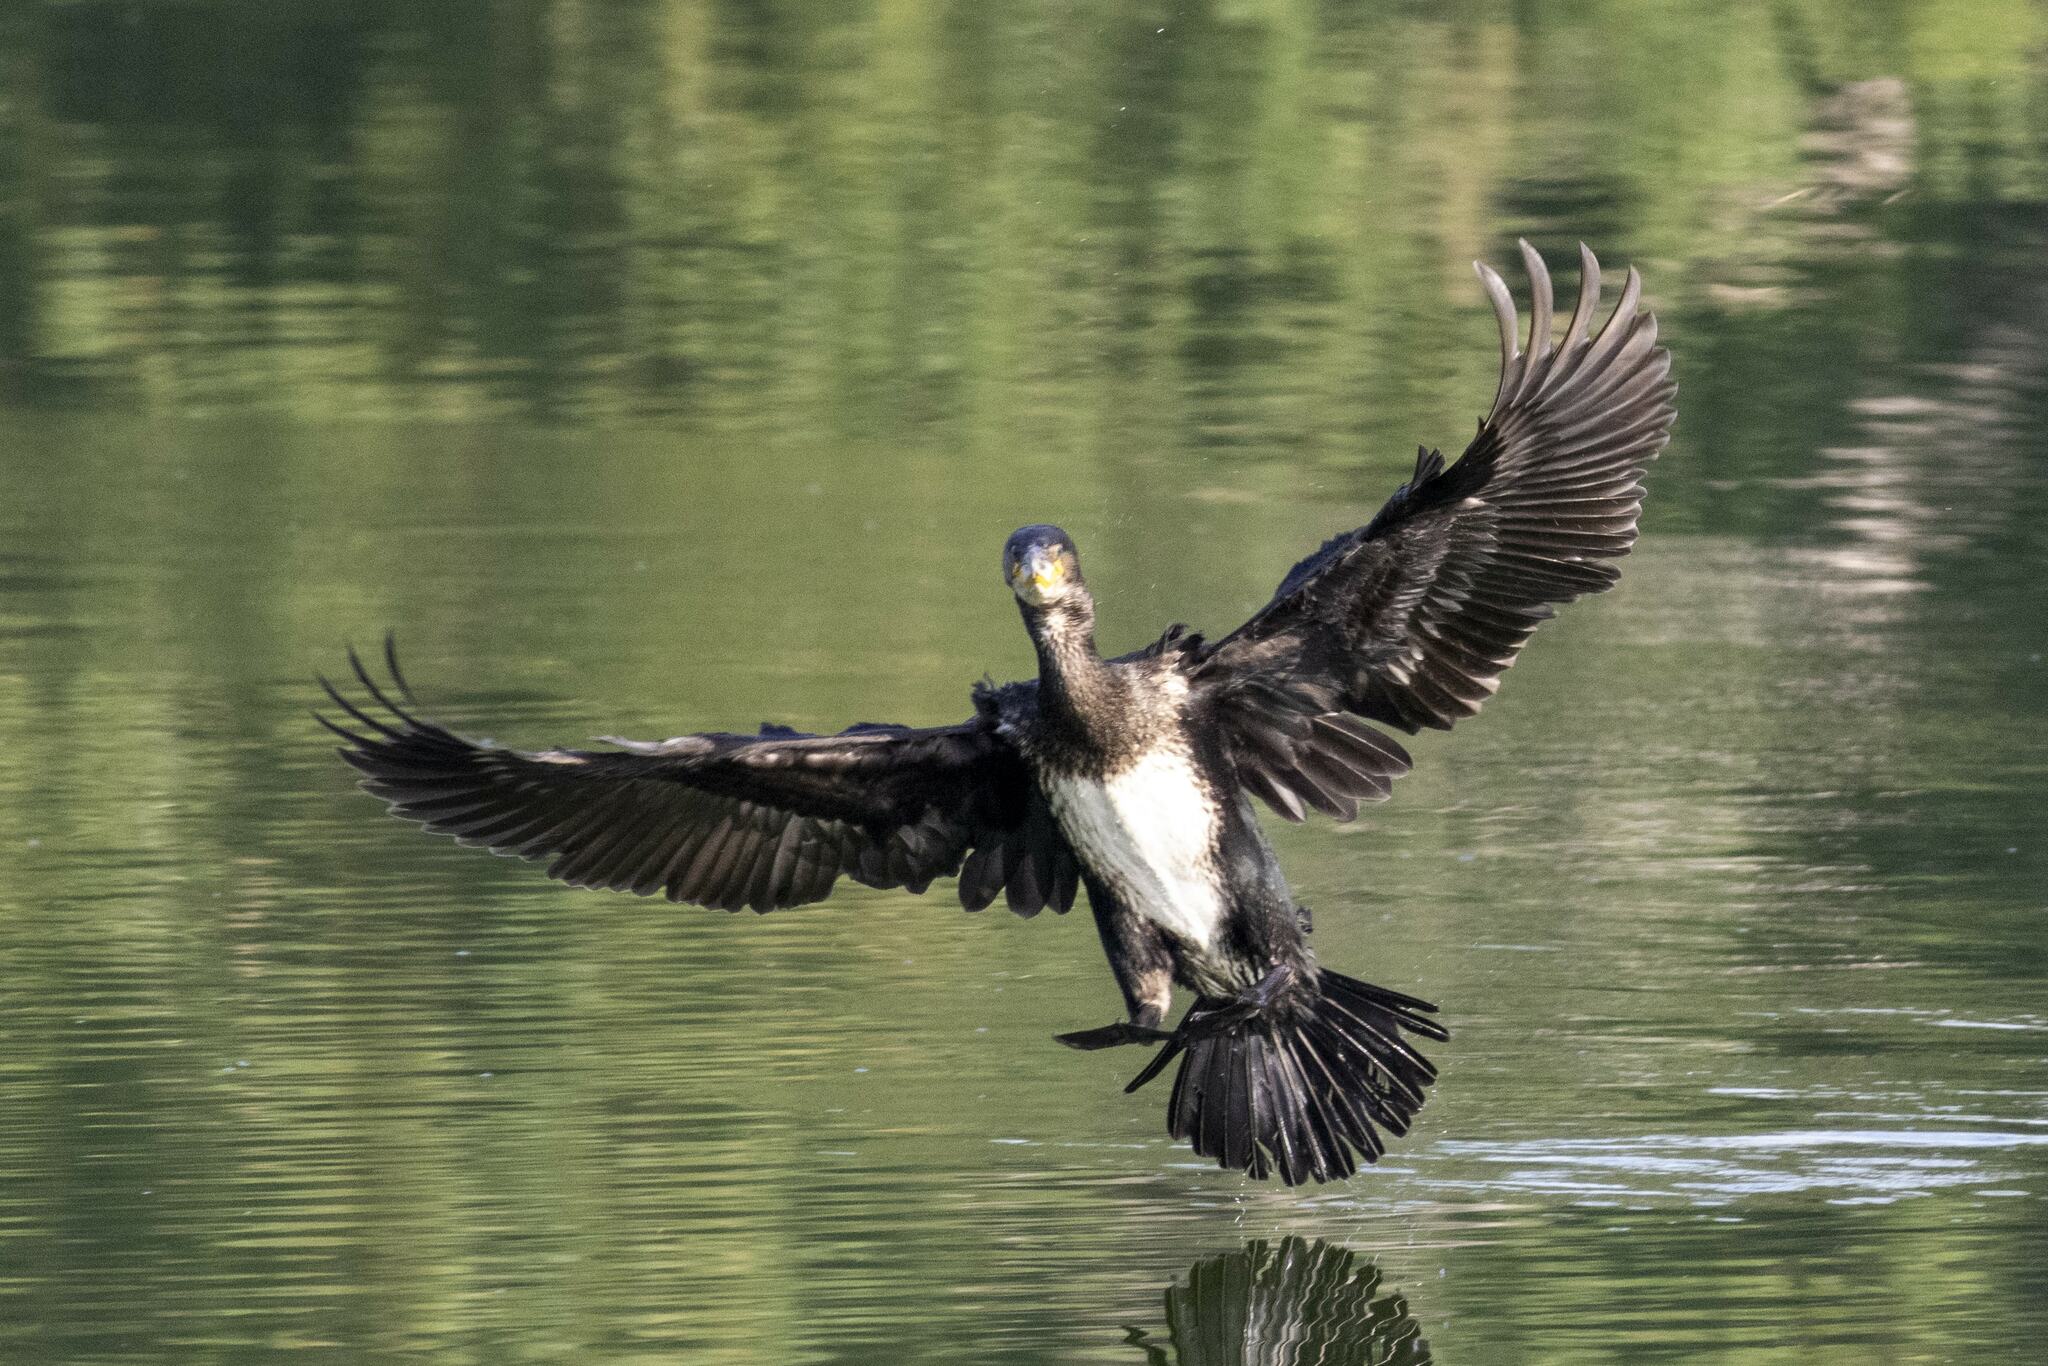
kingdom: Animalia
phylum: Chordata
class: Aves
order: Suliformes
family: Phalacrocoracidae
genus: Phalacrocorax
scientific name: Phalacrocorax carbo
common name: Great cormorant
